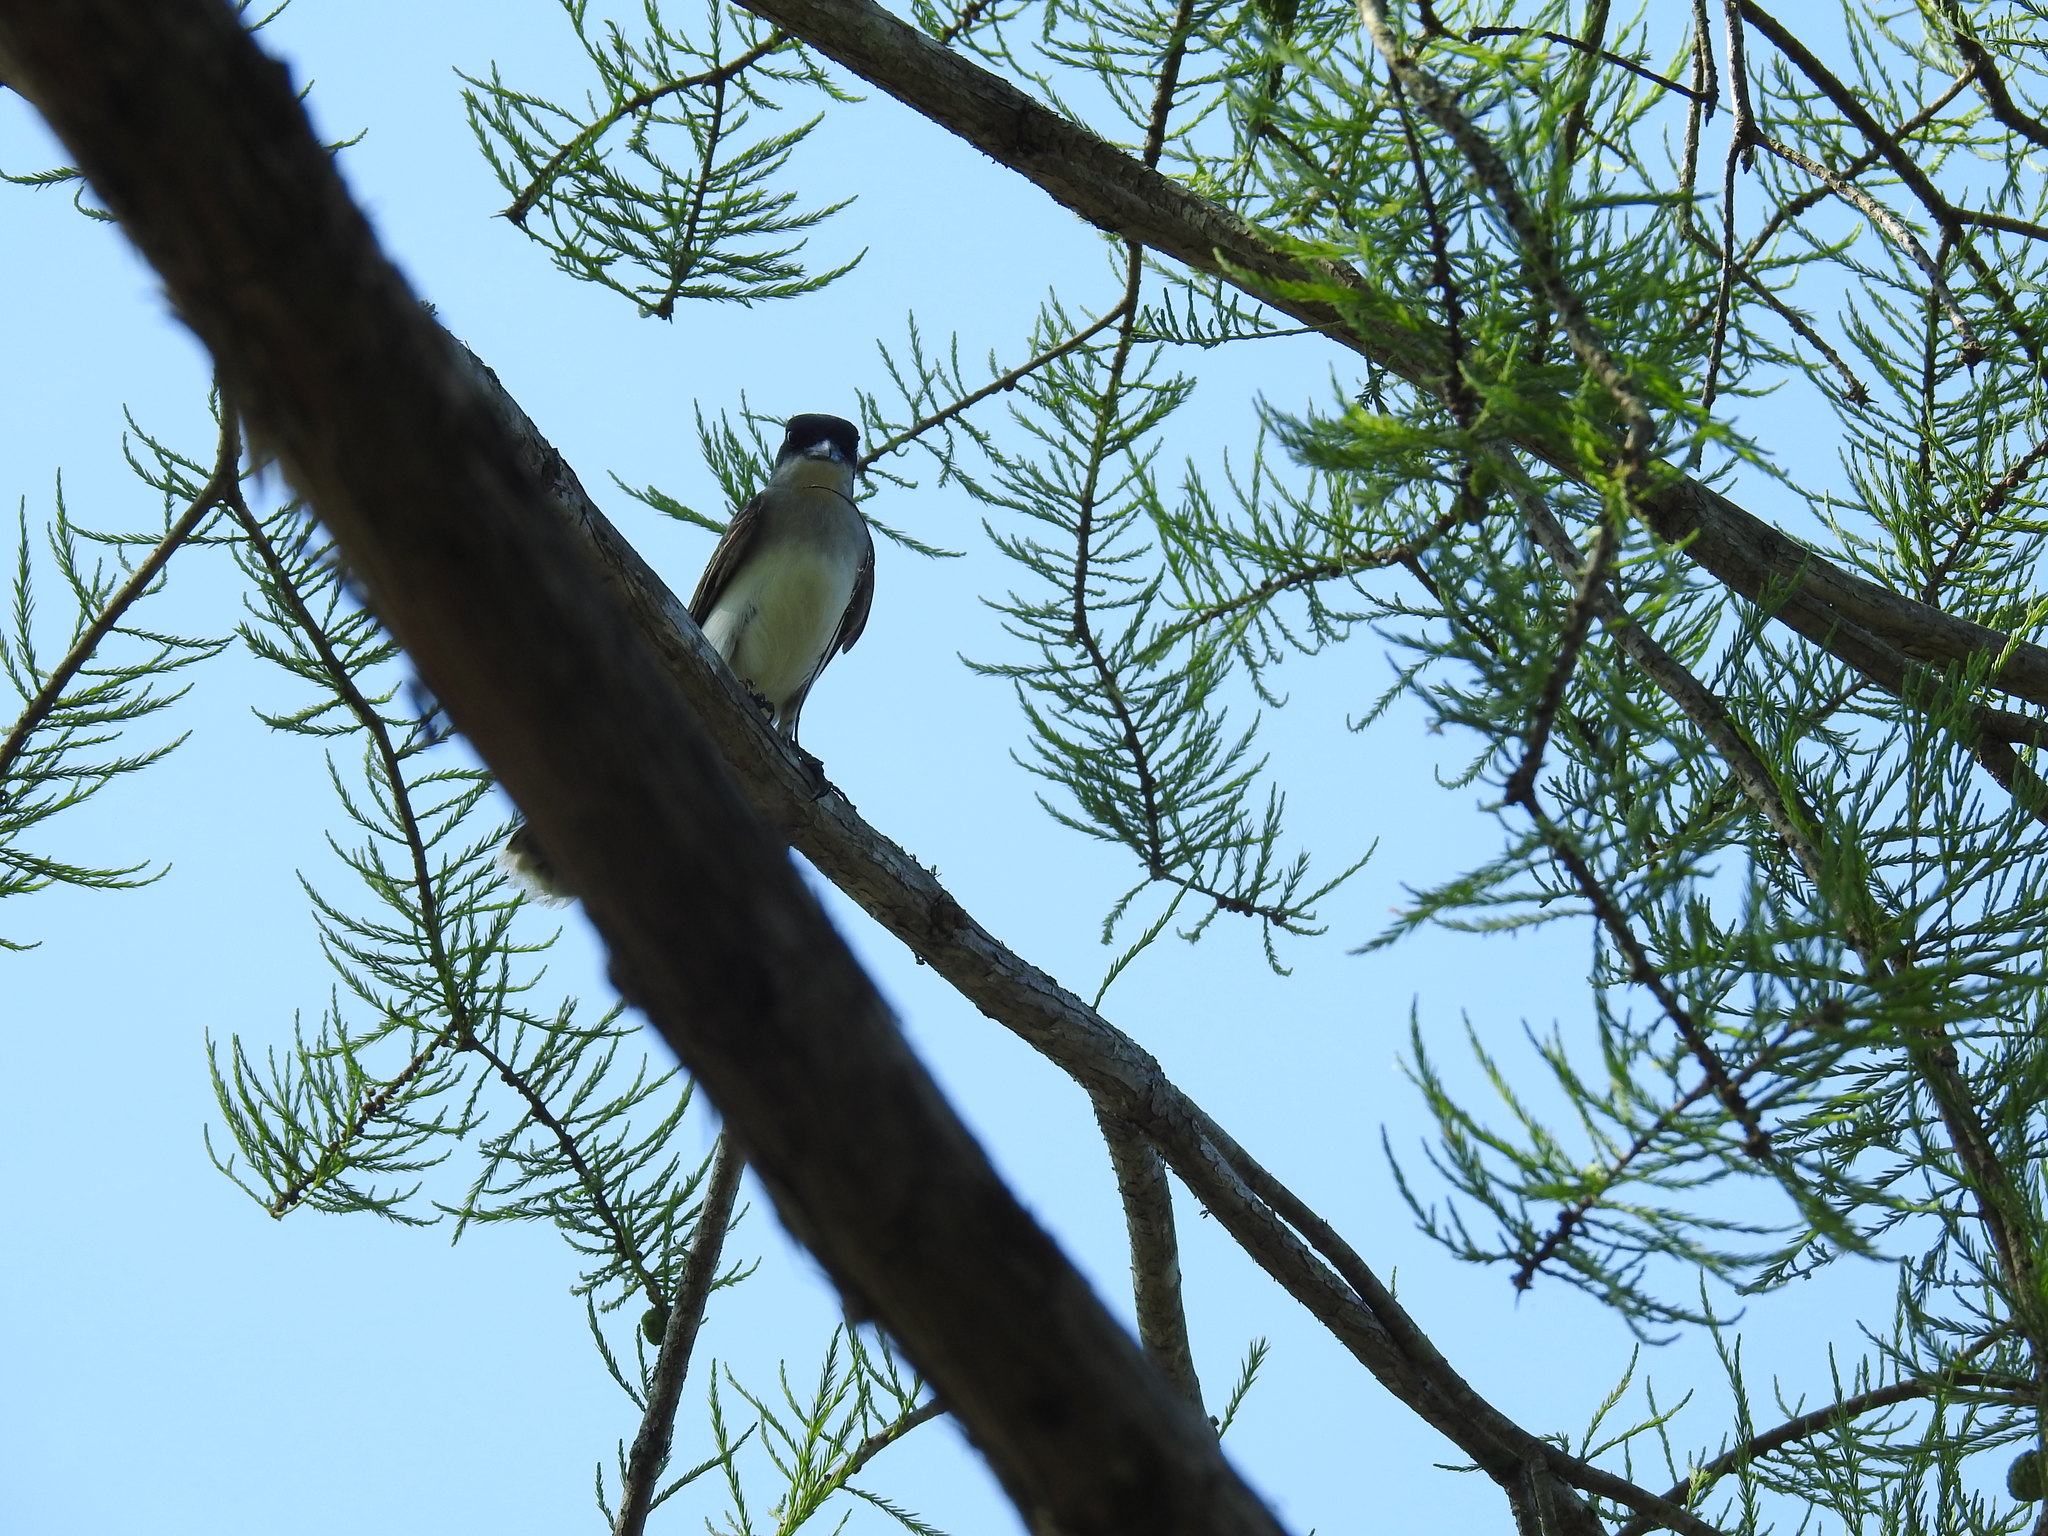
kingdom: Animalia
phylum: Chordata
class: Aves
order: Passeriformes
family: Tyrannidae
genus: Tyrannus
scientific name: Tyrannus tyrannus
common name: Eastern kingbird
